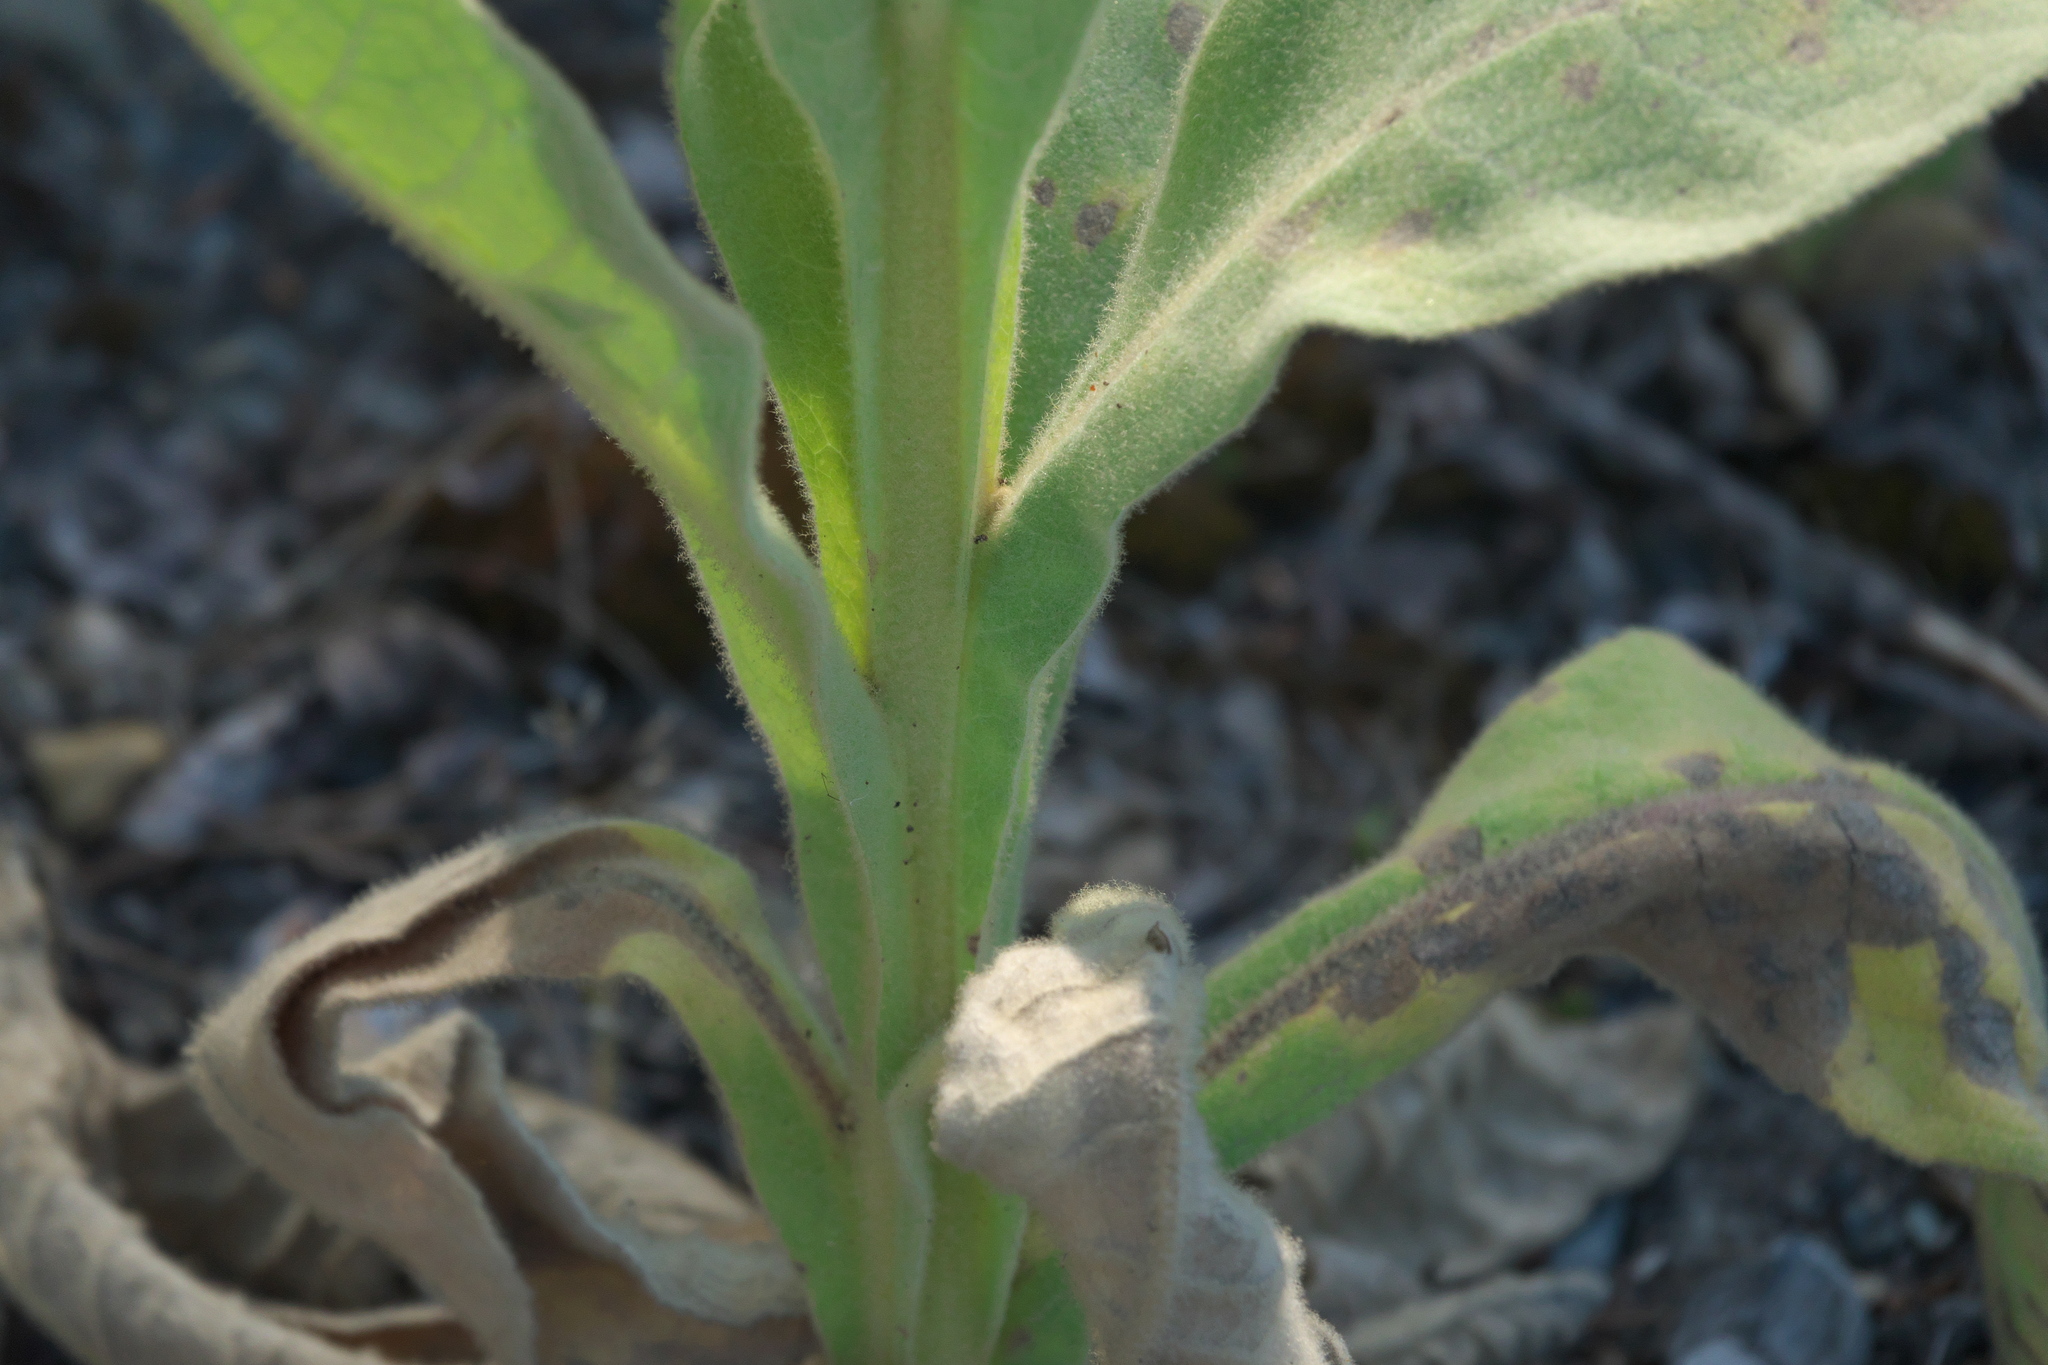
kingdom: Plantae
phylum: Tracheophyta
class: Magnoliopsida
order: Lamiales
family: Scrophulariaceae
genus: Verbascum
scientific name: Verbascum thapsus
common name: Common mullein
